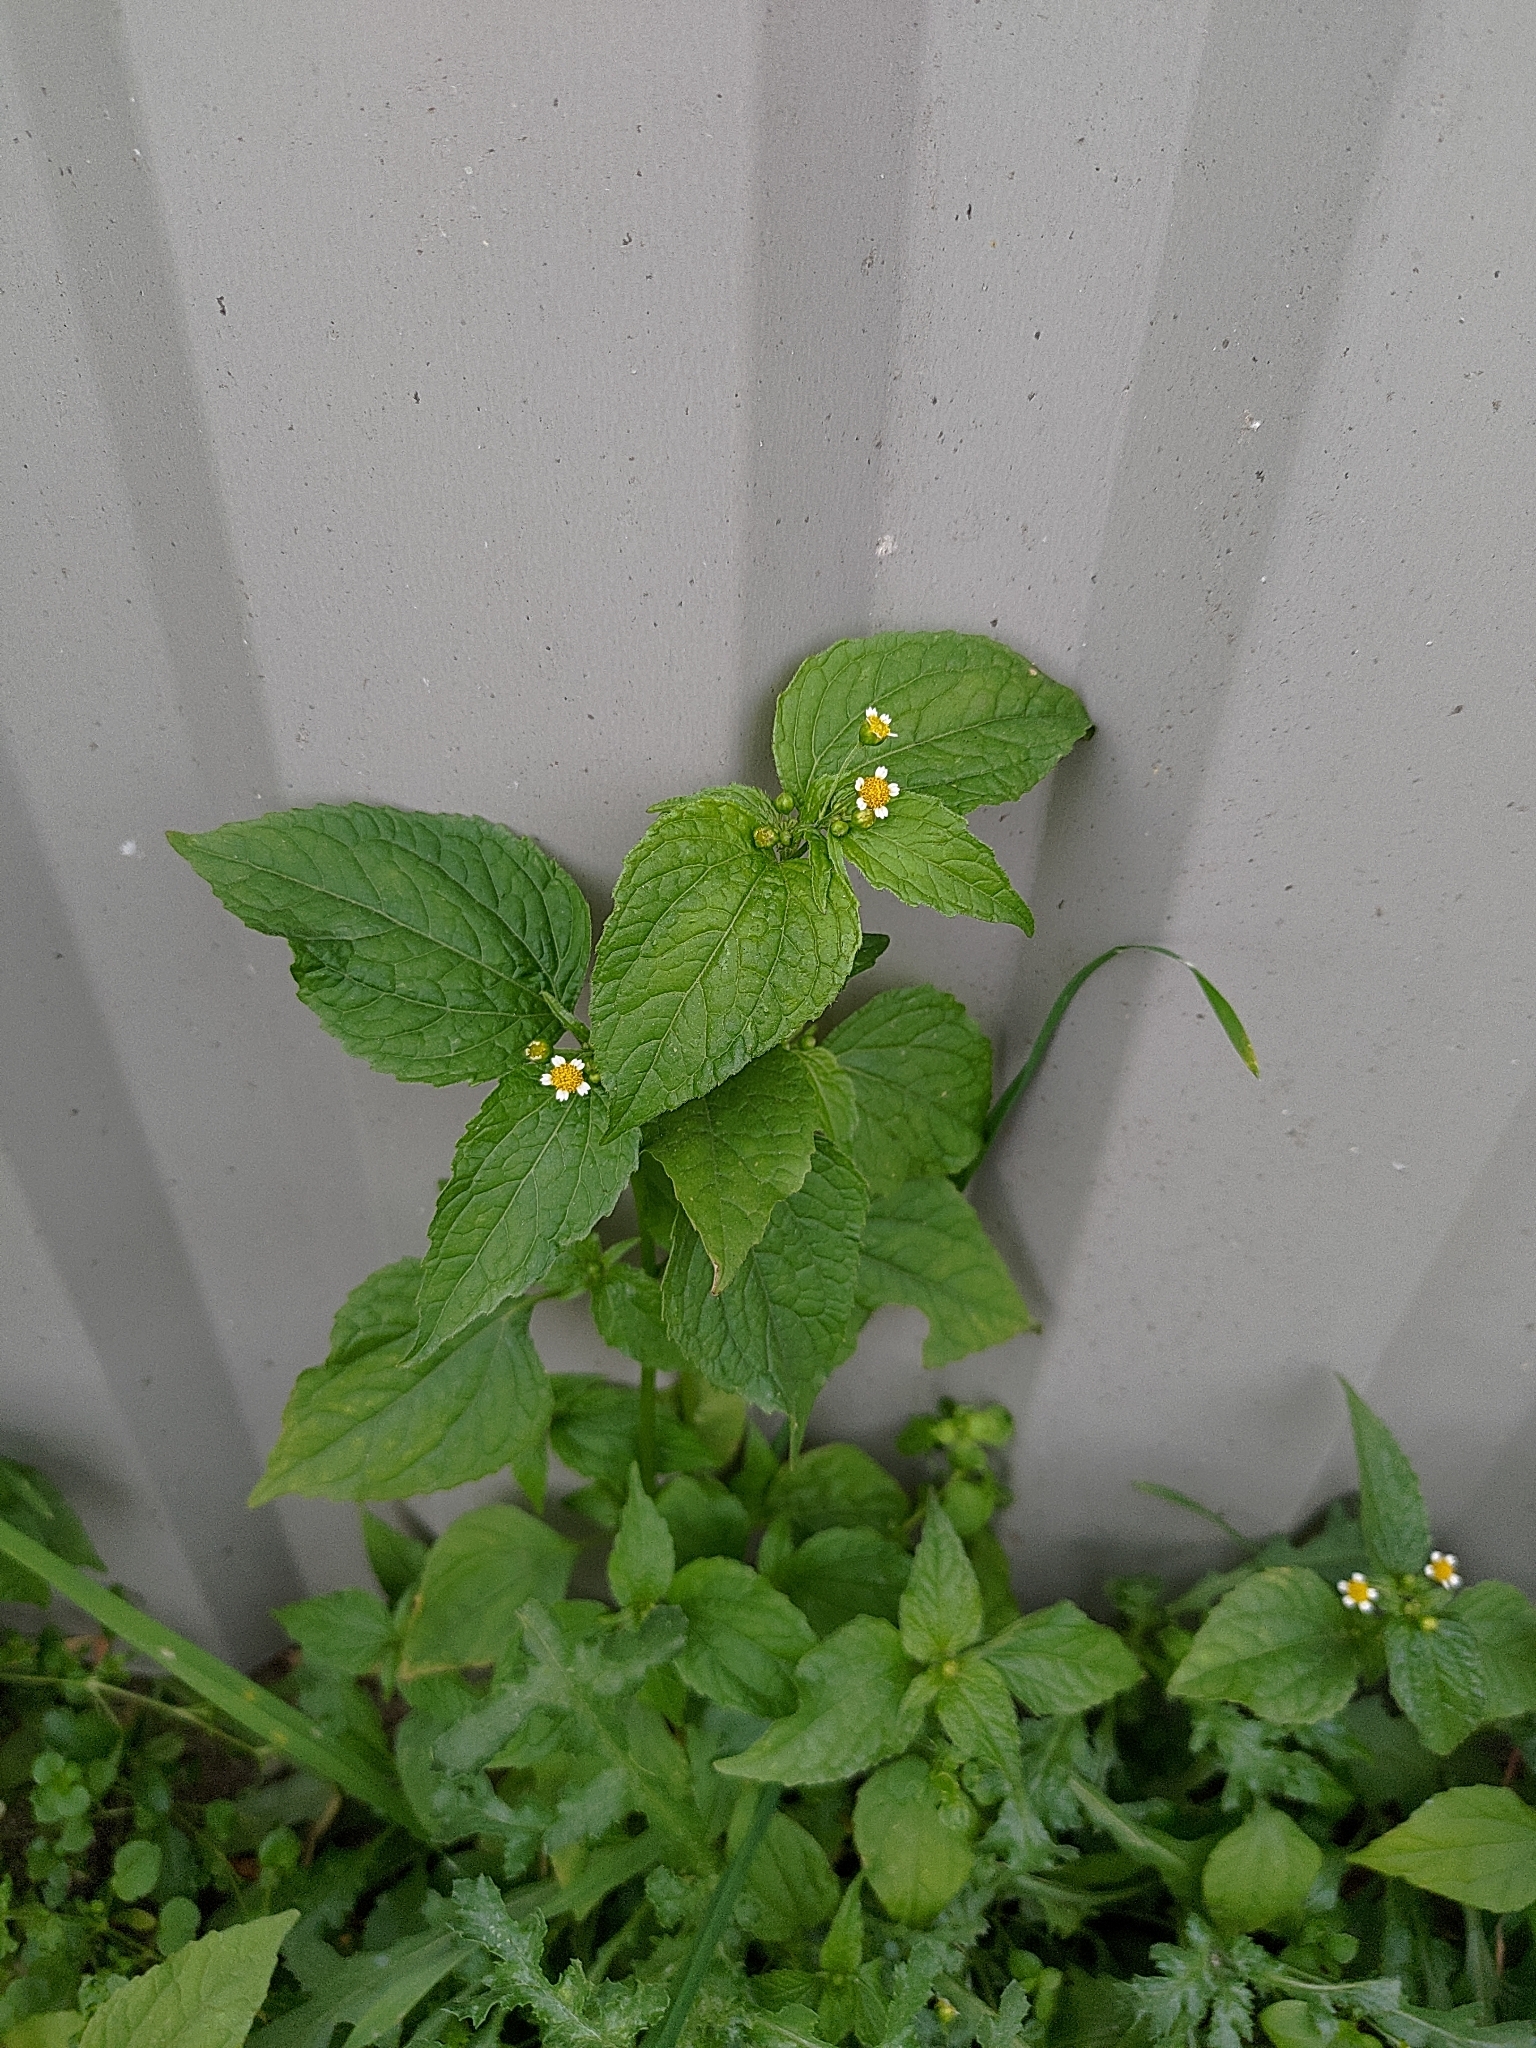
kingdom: Plantae
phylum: Tracheophyta
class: Magnoliopsida
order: Asterales
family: Asteraceae
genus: Galinsoga
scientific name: Galinsoga parviflora
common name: Gallant soldier
